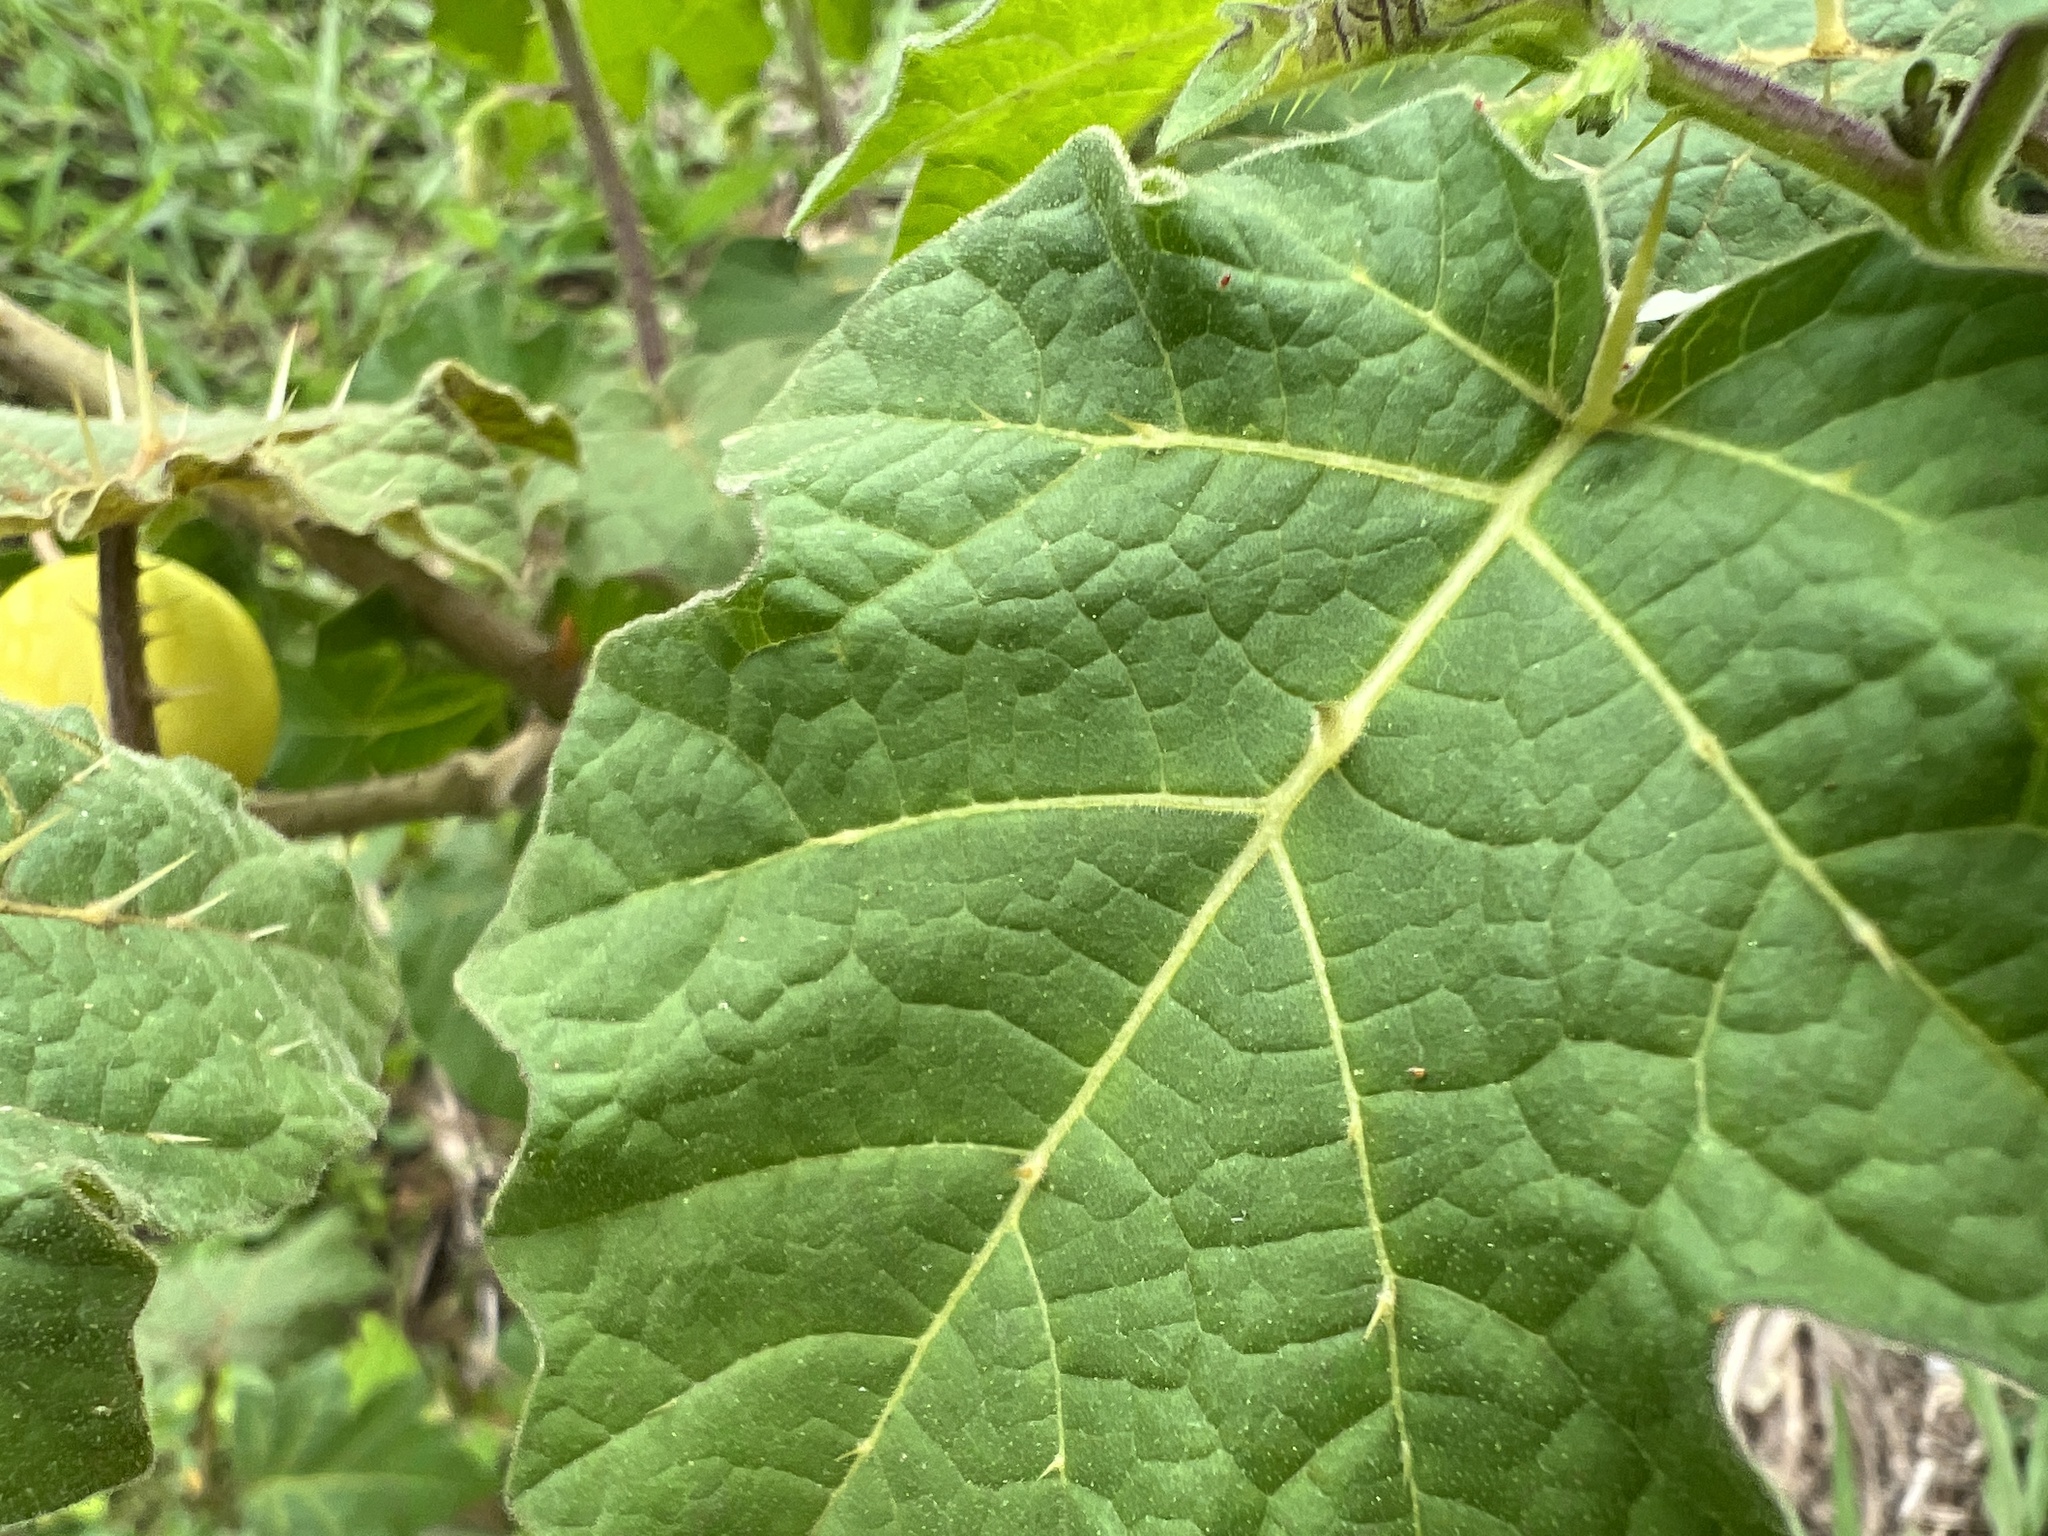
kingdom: Plantae
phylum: Tracheophyta
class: Magnoliopsida
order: Solanales
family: Solanaceae
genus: Solanum
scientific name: Solanum viarum
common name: Tropical soda apple
